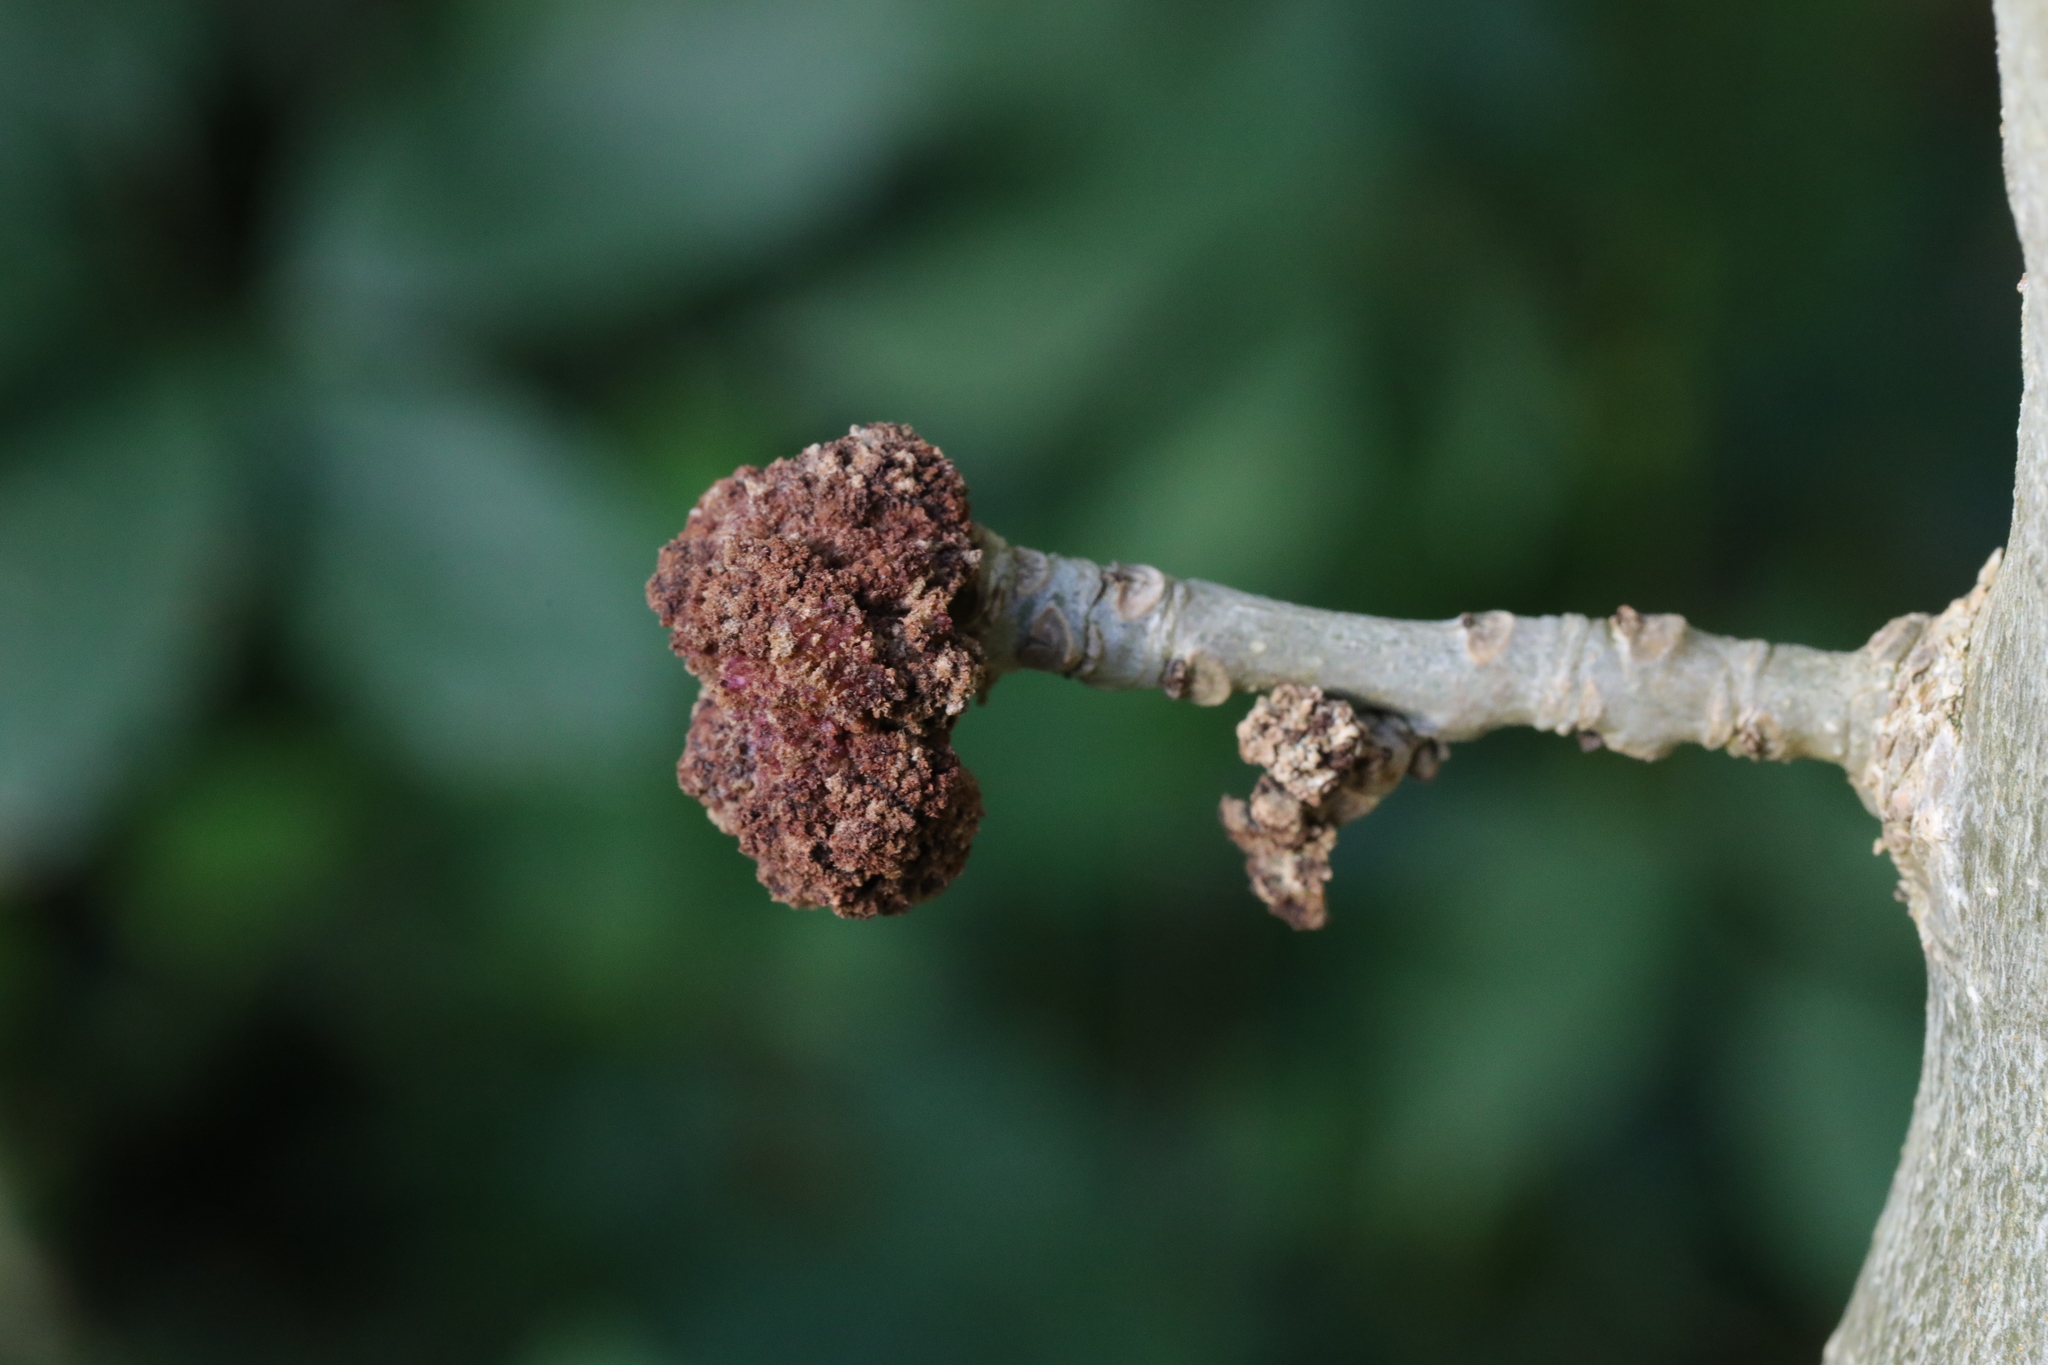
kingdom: Animalia
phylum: Arthropoda
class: Arachnida
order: Trombidiformes
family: Eriophyidae
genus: Aceria
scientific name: Aceria fraxinivora
